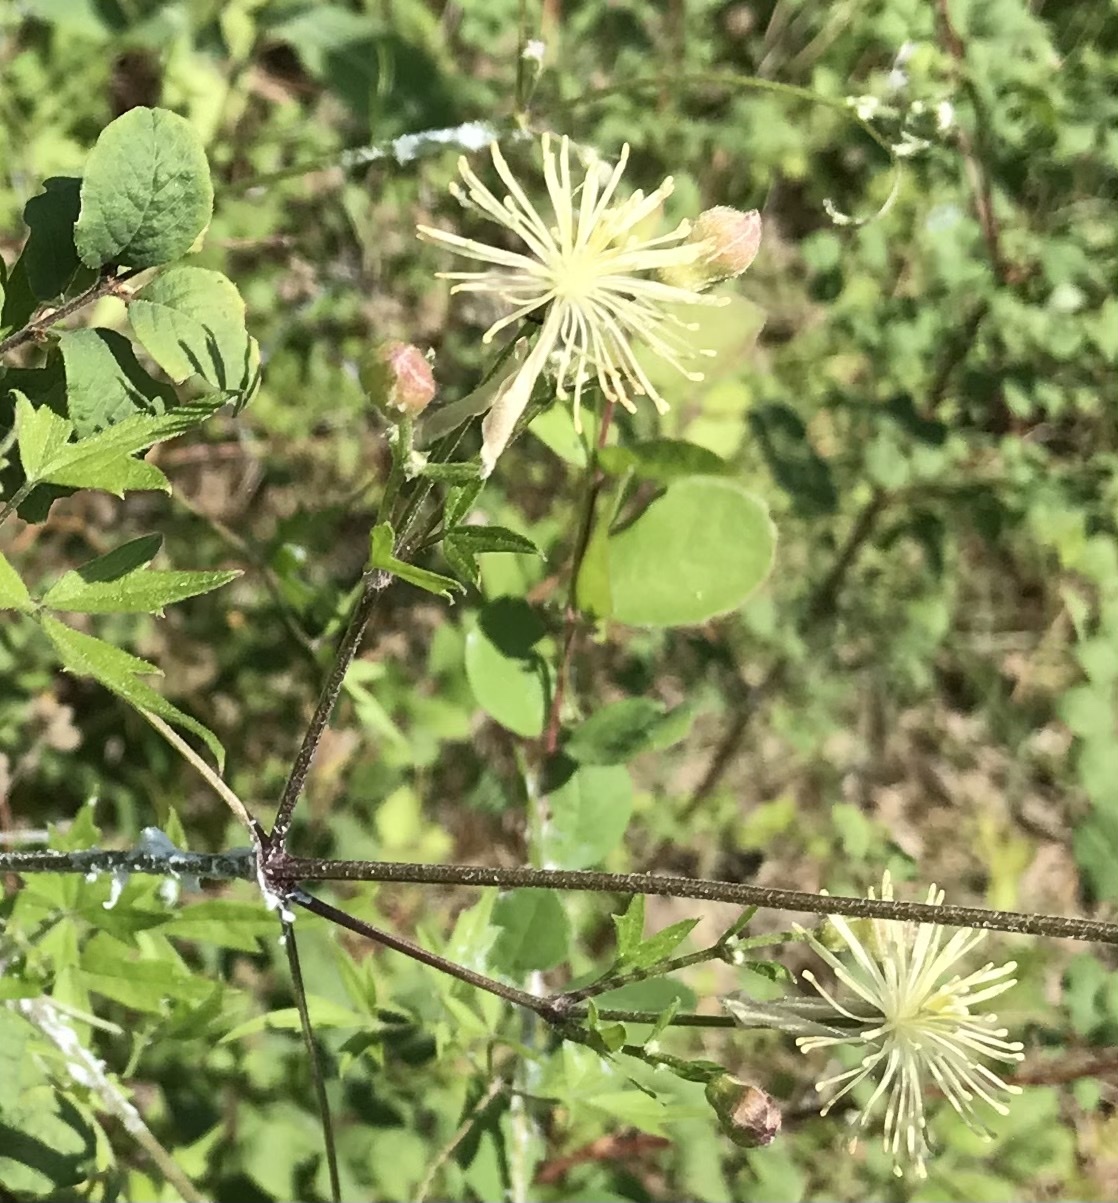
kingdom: Plantae
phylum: Tracheophyta
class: Magnoliopsida
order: Ranunculales
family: Ranunculaceae
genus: Clematis
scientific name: Clematis drummondii
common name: Texas virgin's bower
